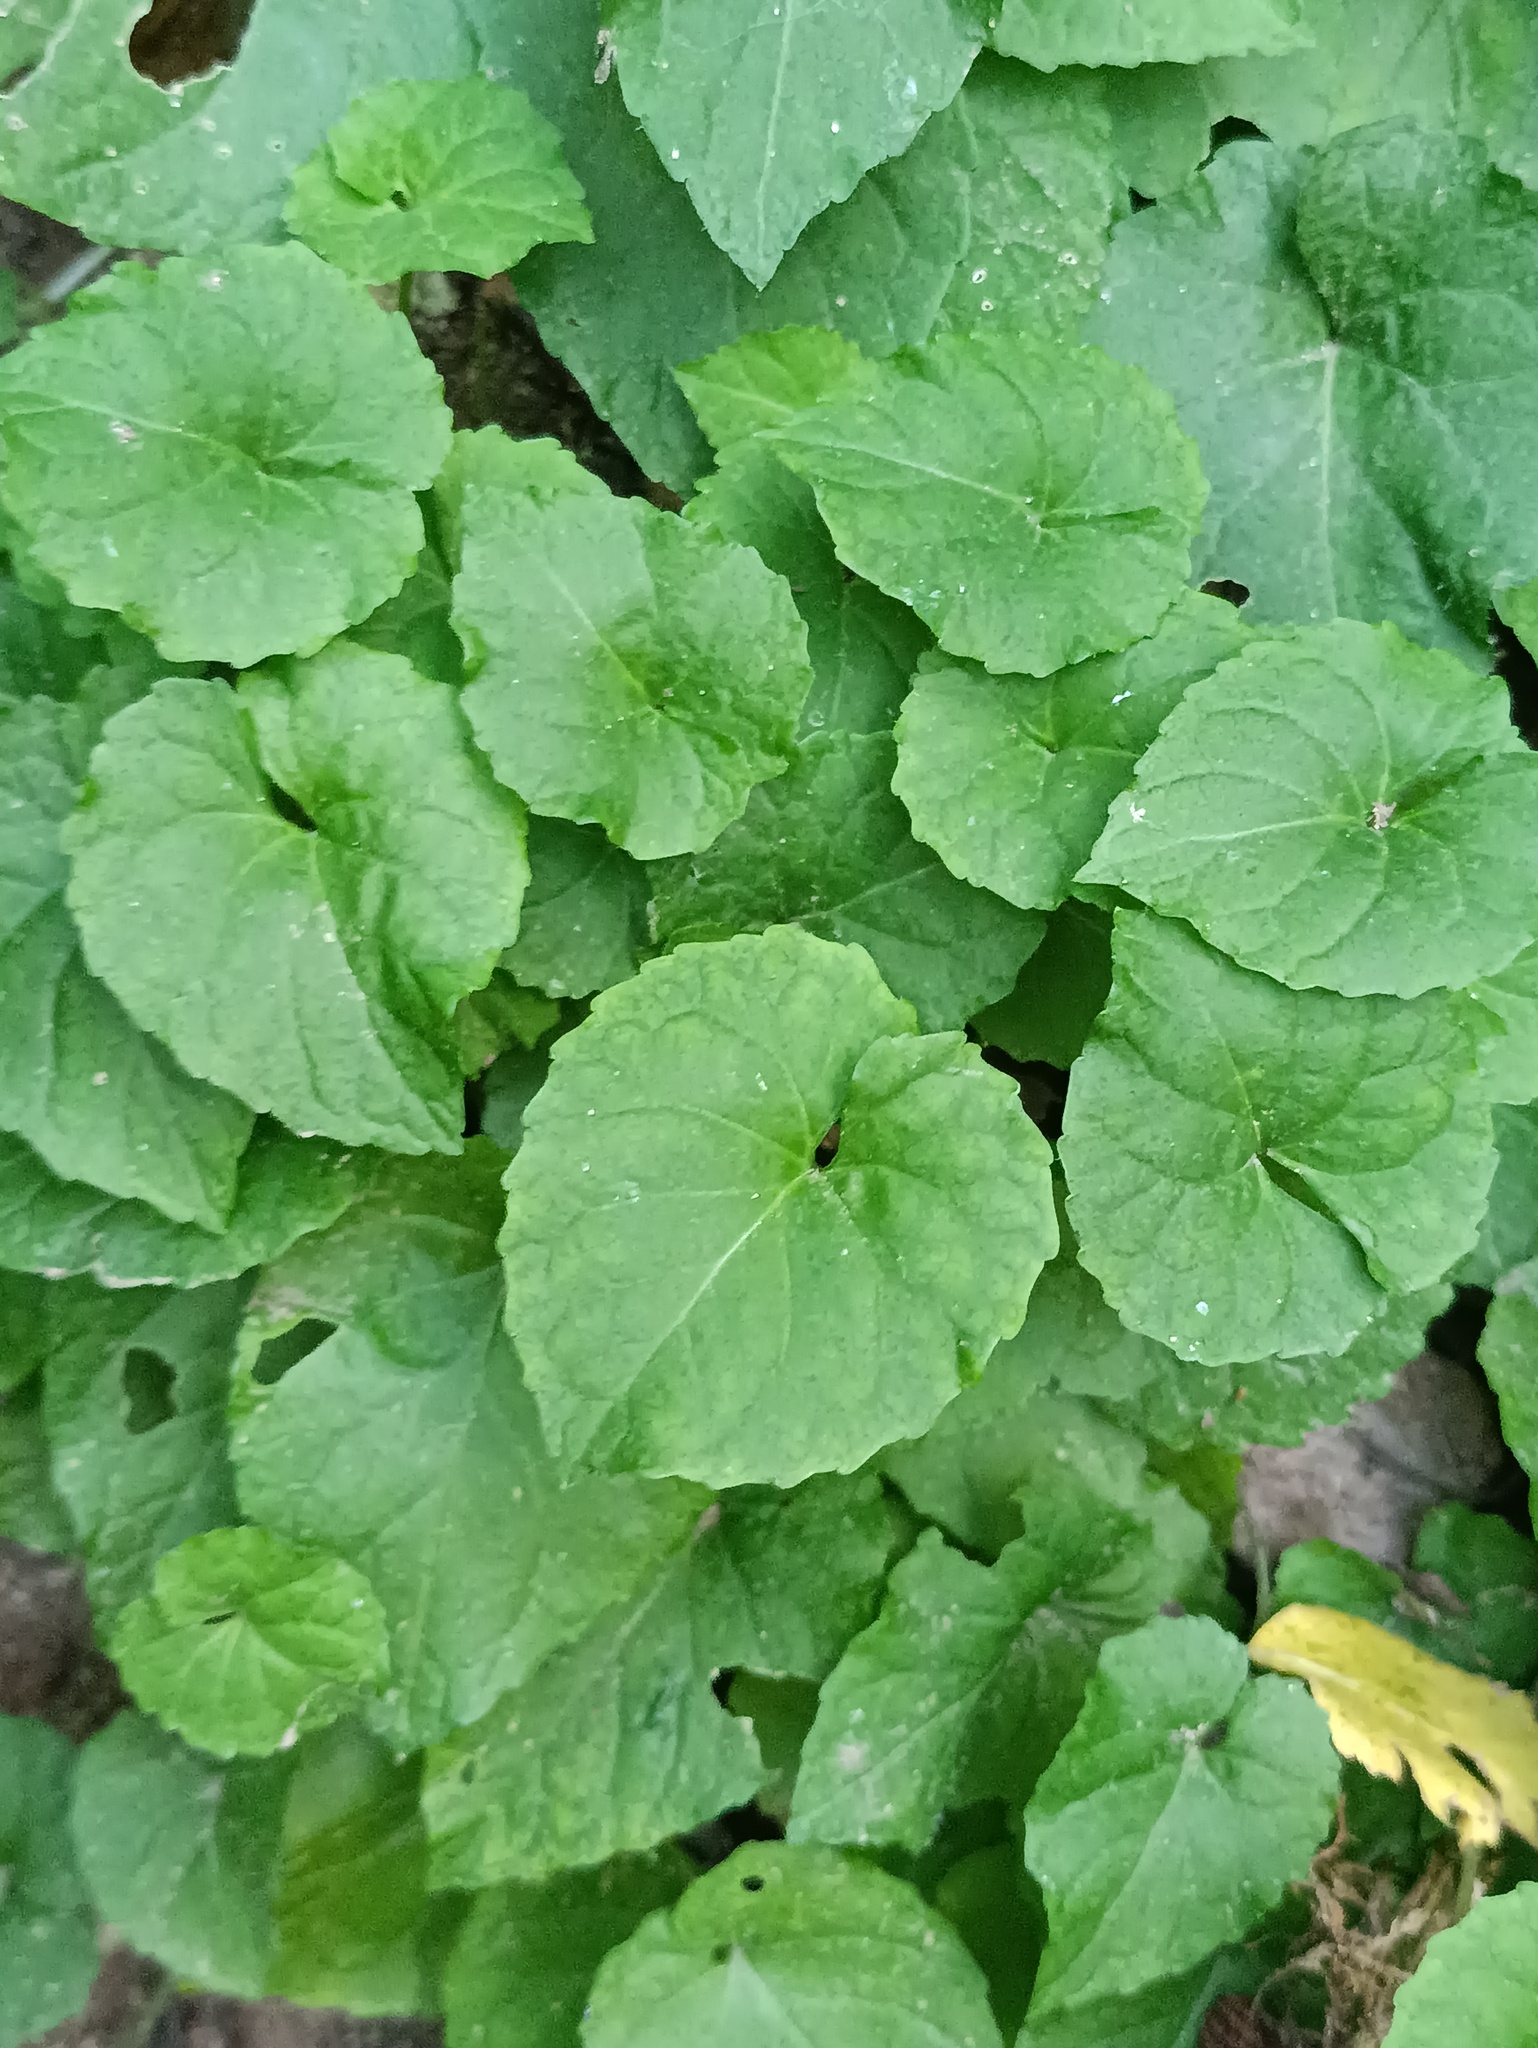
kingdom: Plantae
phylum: Tracheophyta
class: Magnoliopsida
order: Malpighiales
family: Violaceae
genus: Viola
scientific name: Viola selkirkii
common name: Selkirk's violet
